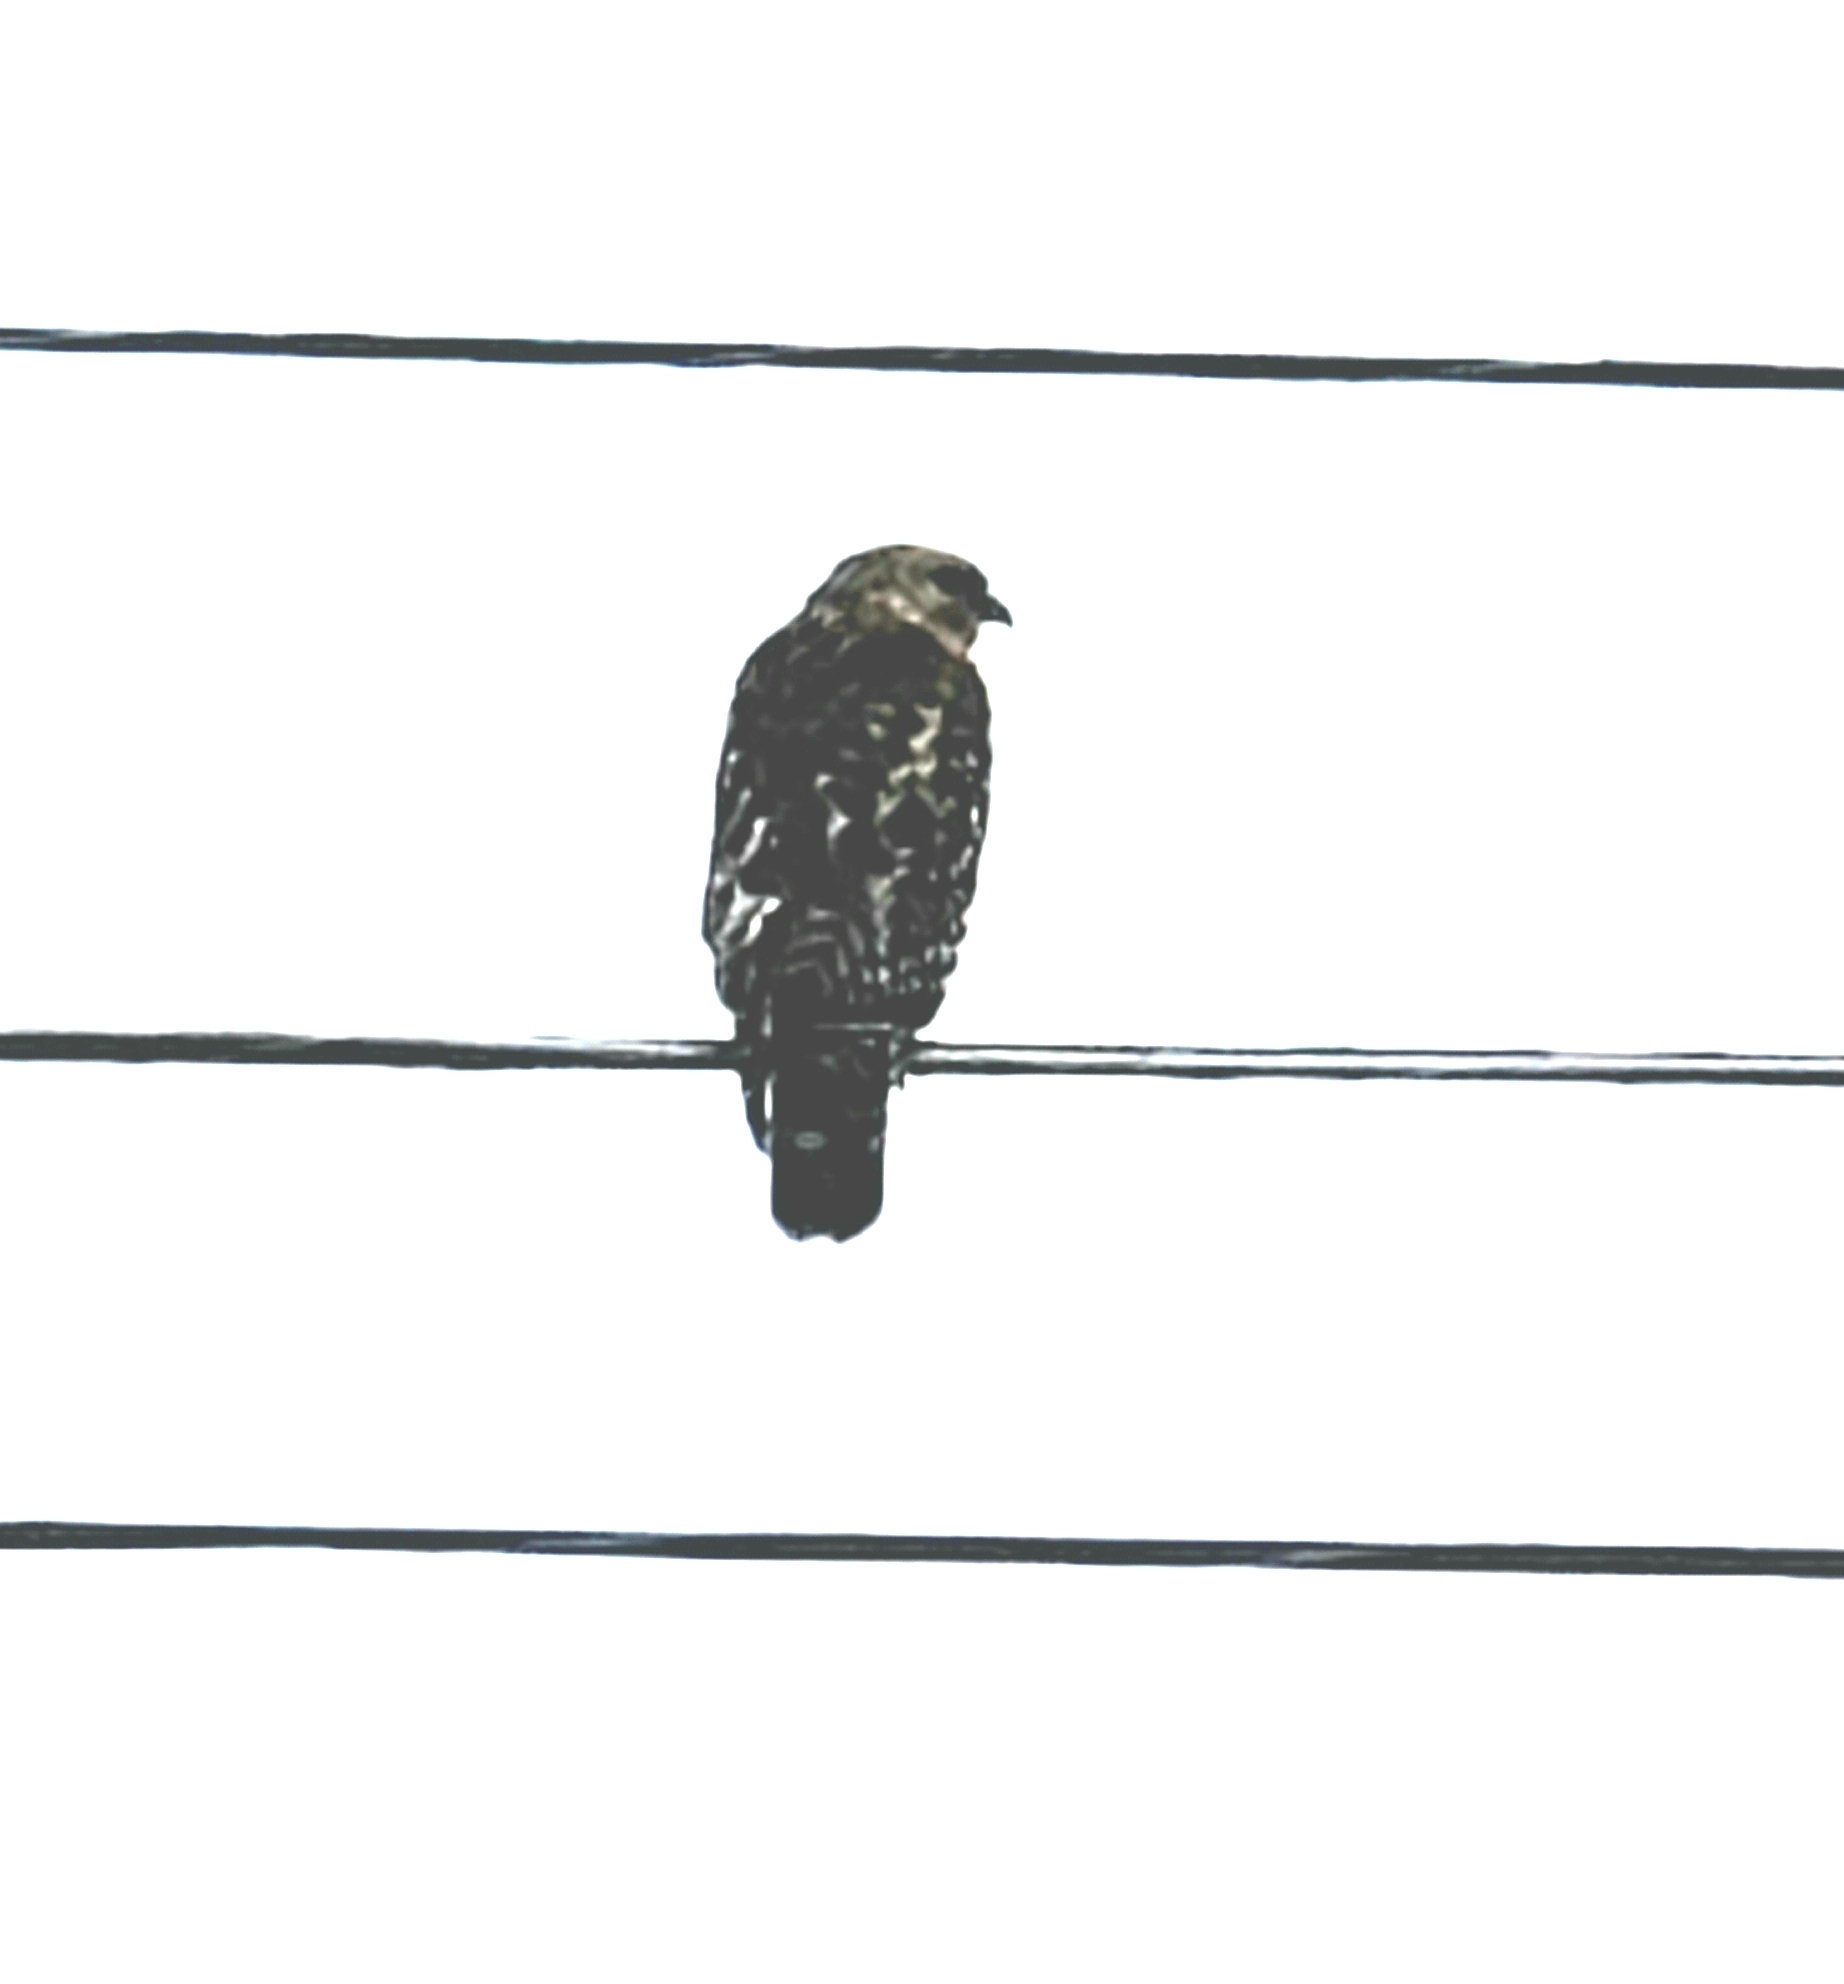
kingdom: Animalia
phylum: Chordata
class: Aves
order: Accipitriformes
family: Accipitridae
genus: Buteo
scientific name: Buteo lineatus
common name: Red-shouldered hawk
